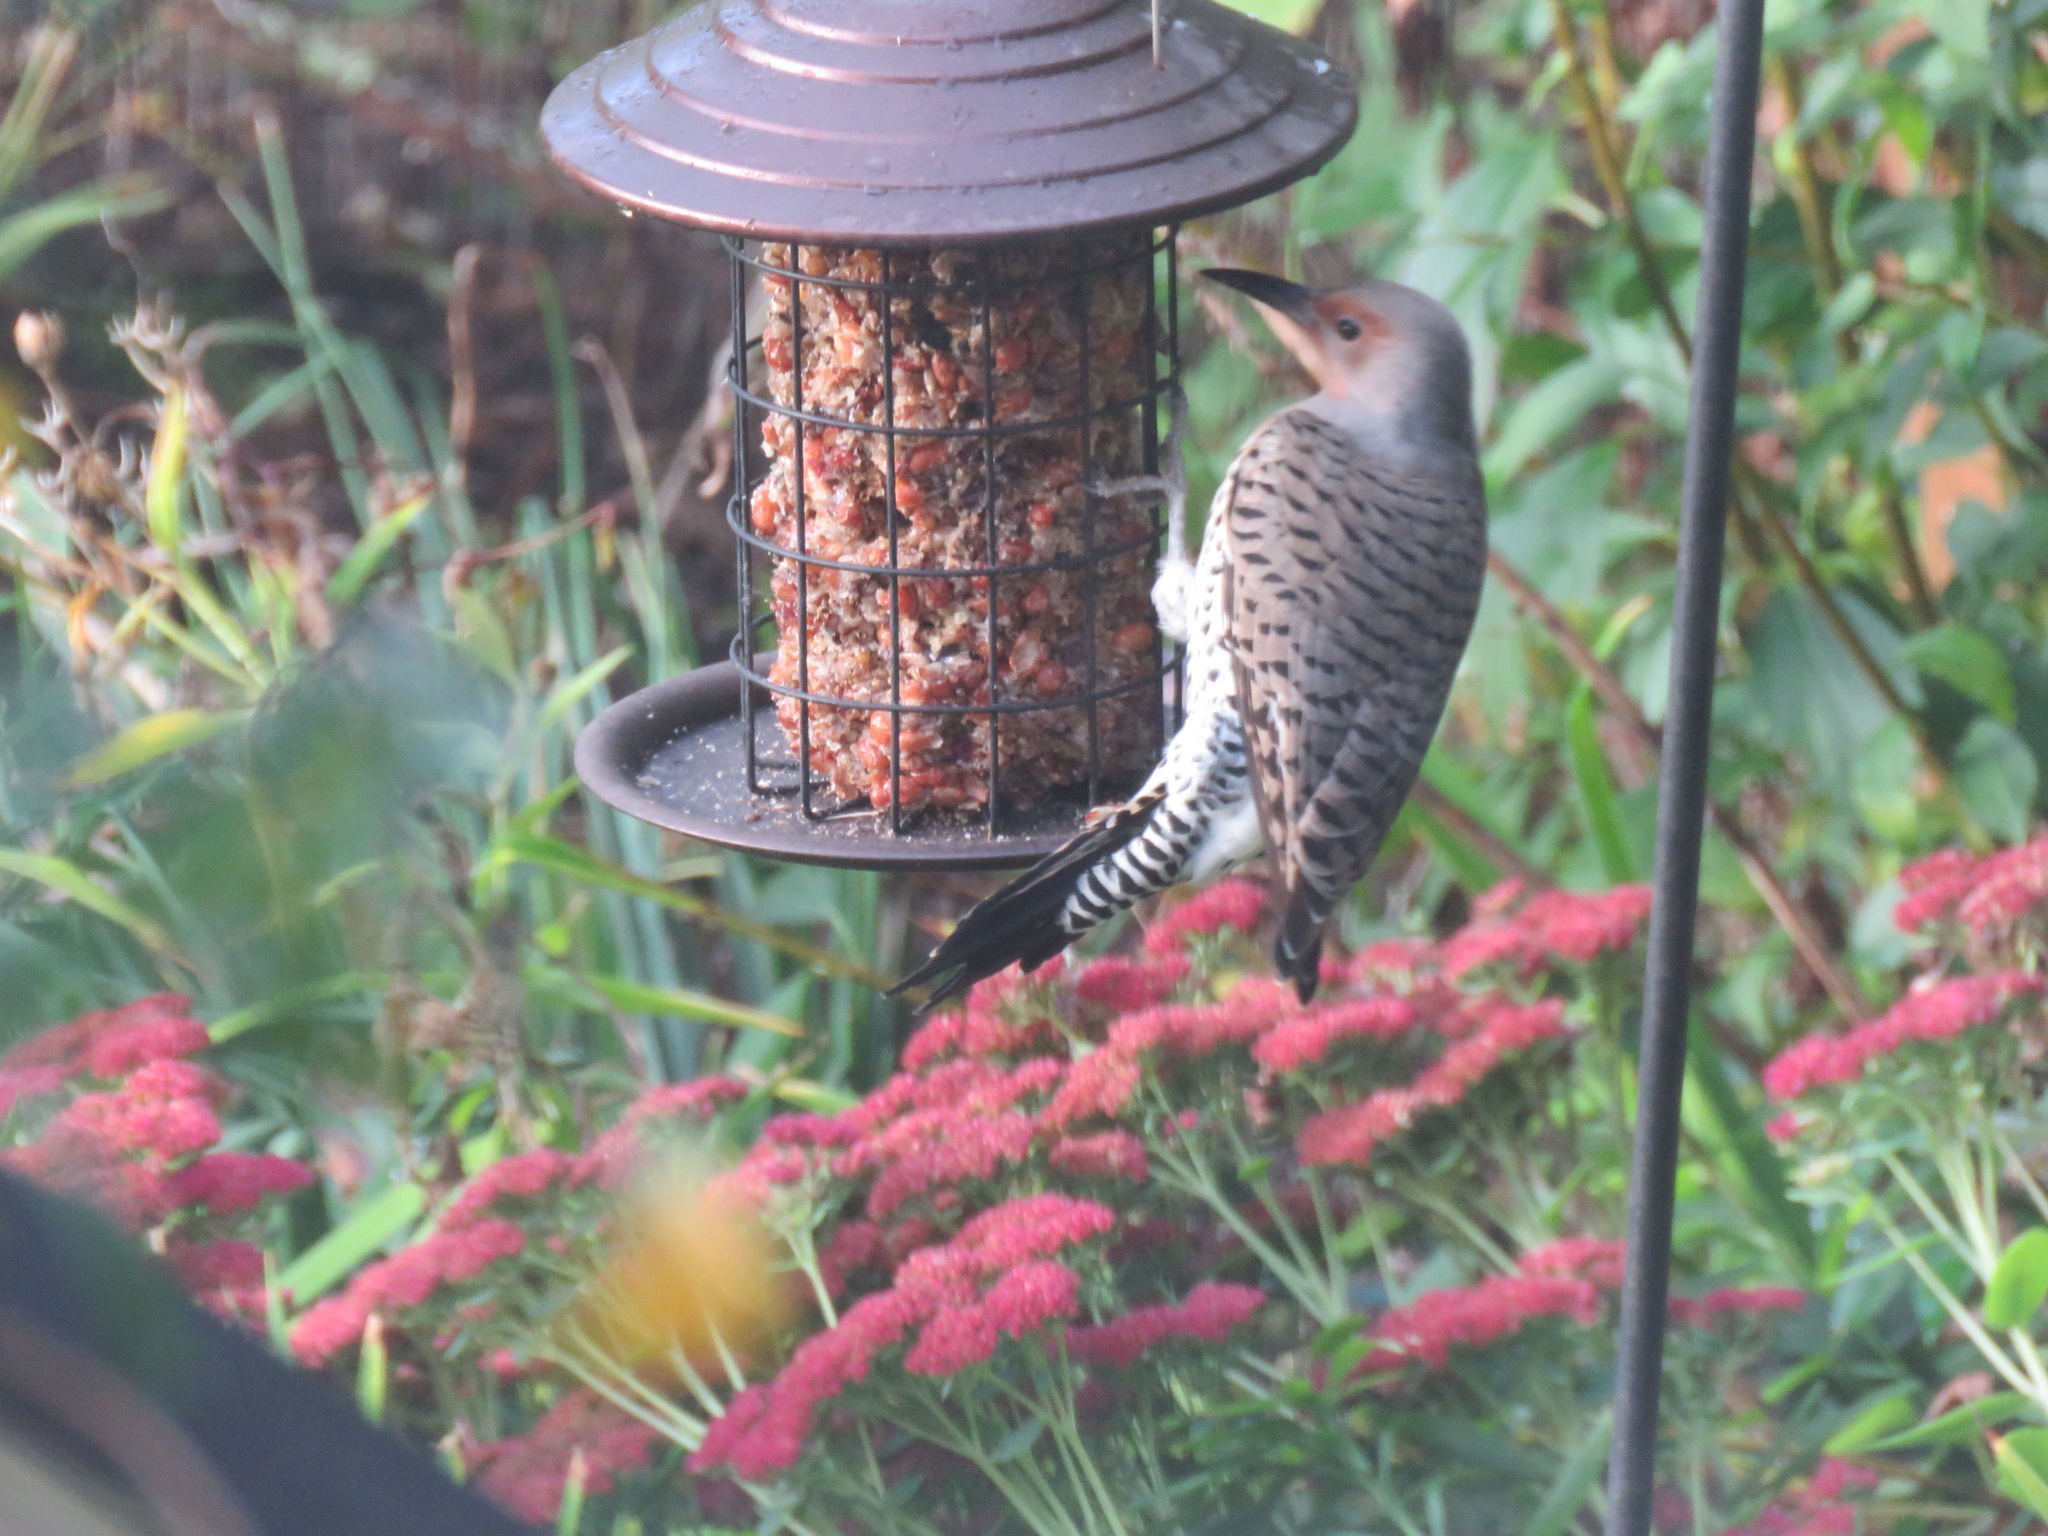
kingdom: Animalia
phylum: Chordata
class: Aves
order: Piciformes
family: Picidae
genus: Colaptes
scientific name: Colaptes auratus
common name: Northern flicker
